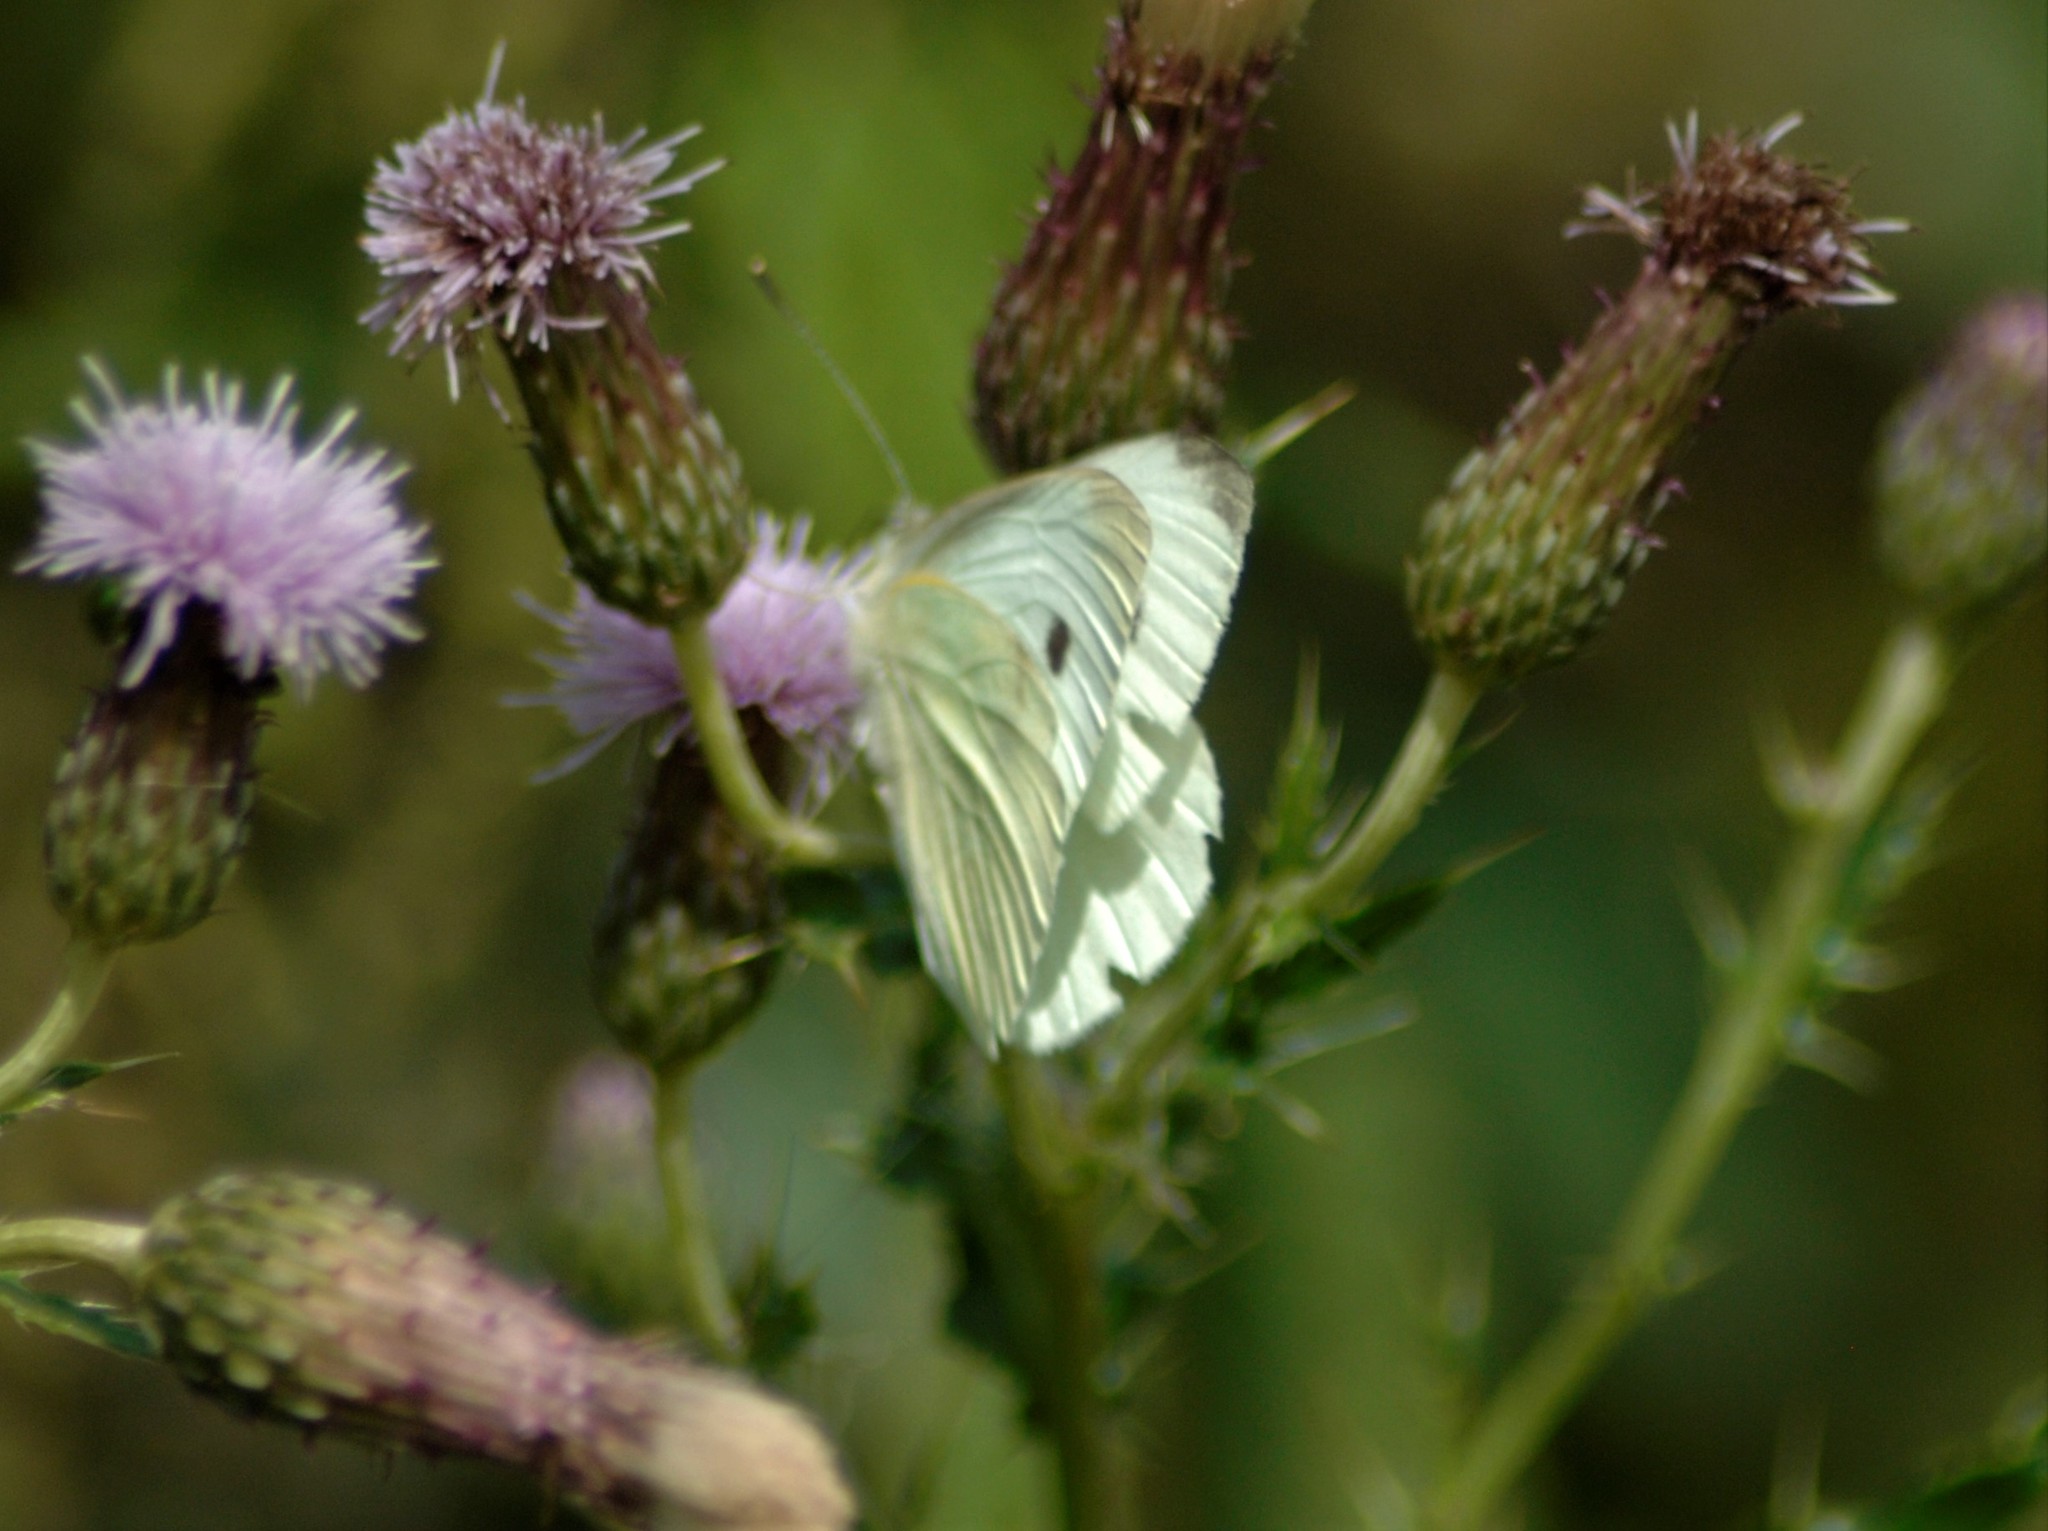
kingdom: Animalia
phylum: Arthropoda
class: Insecta
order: Lepidoptera
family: Pieridae
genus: Pieris
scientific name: Pieris rapae
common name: Small white
